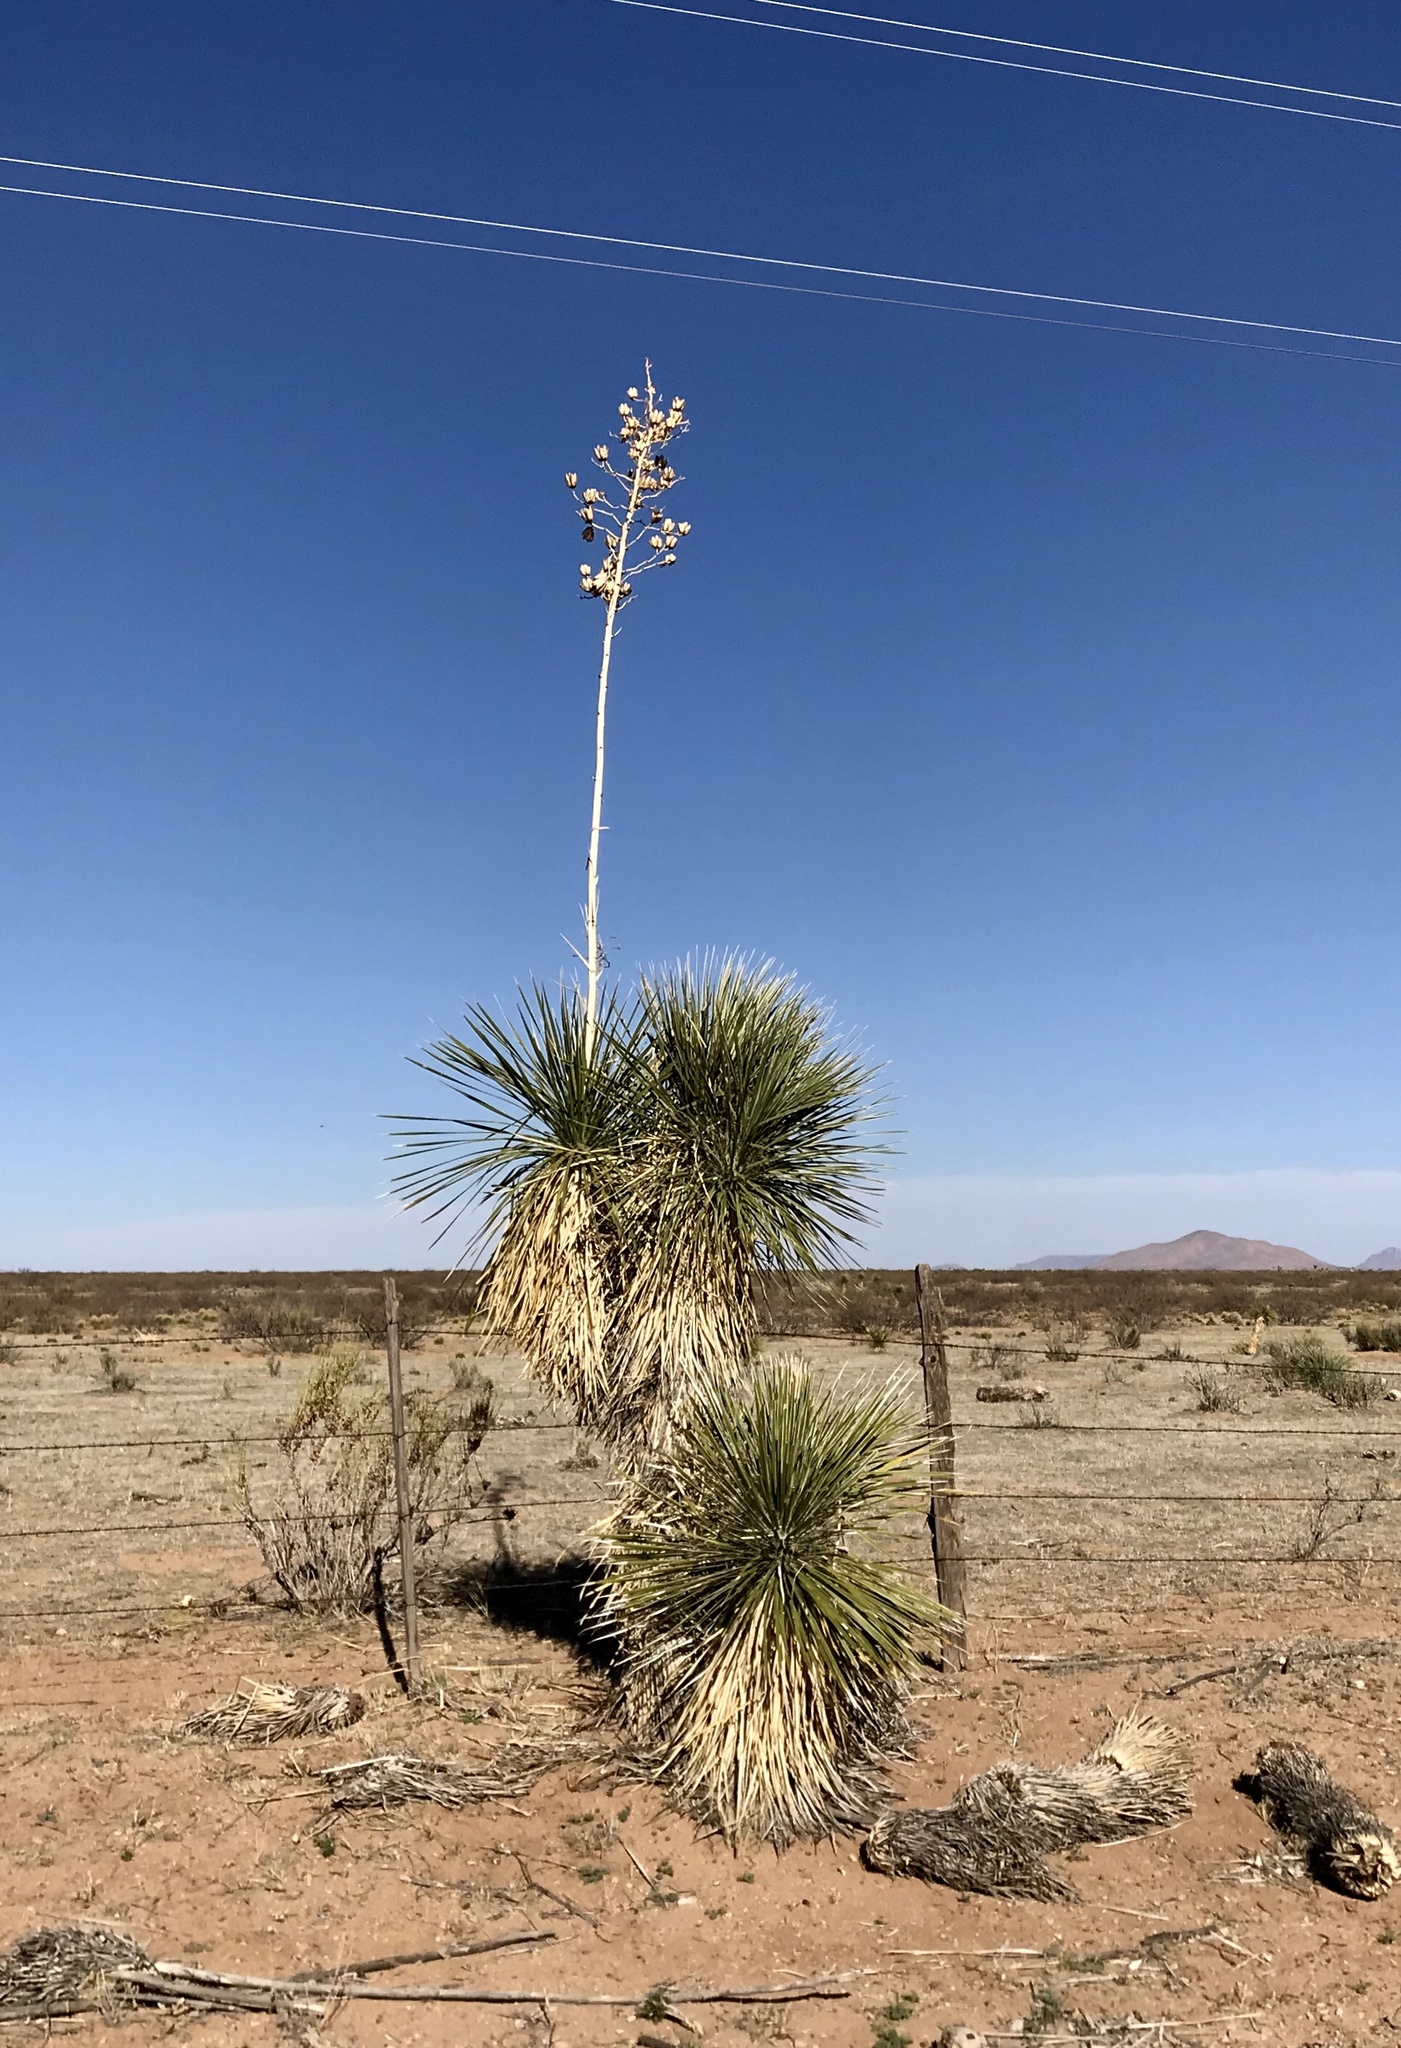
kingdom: Plantae
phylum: Tracheophyta
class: Liliopsida
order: Asparagales
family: Asparagaceae
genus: Yucca
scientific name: Yucca elata
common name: Palmella
